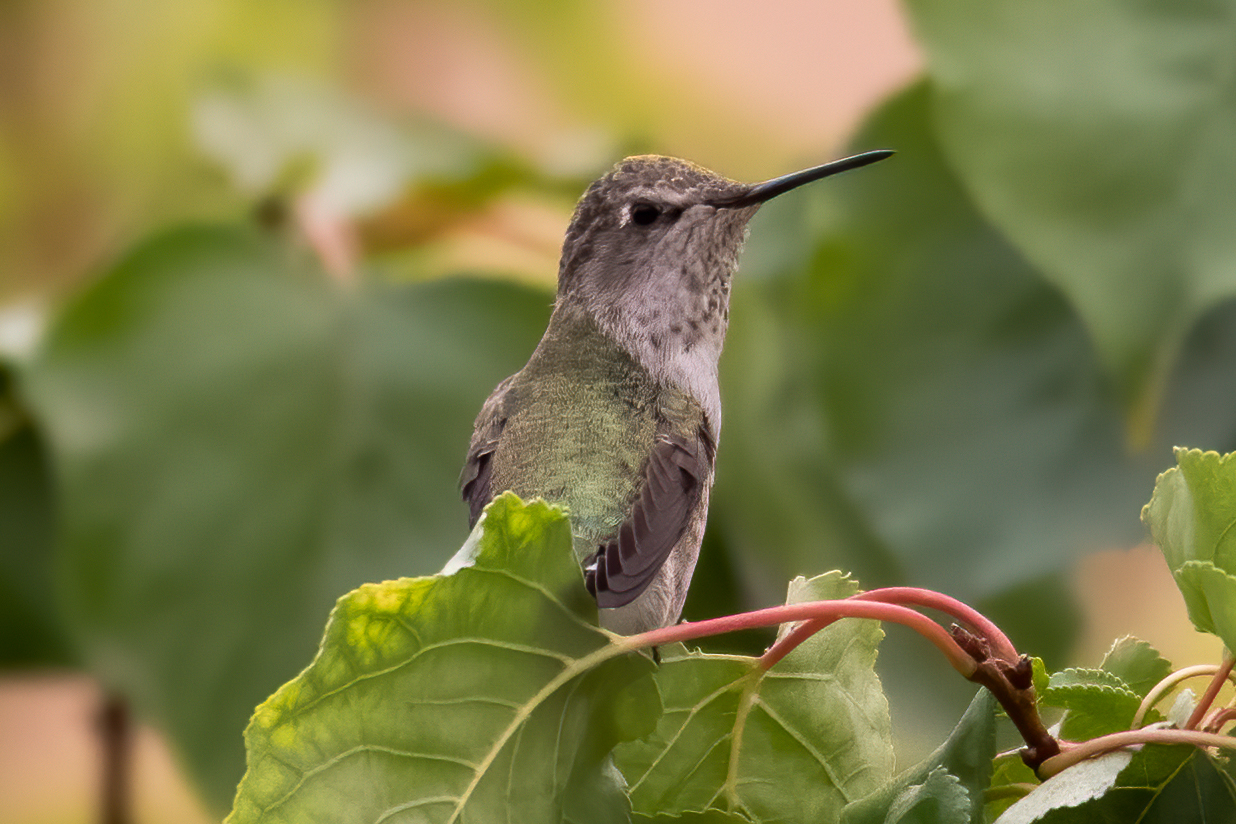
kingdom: Animalia
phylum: Chordata
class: Aves
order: Apodiformes
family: Trochilidae
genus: Calypte
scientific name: Calypte anna
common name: Anna's hummingbird
